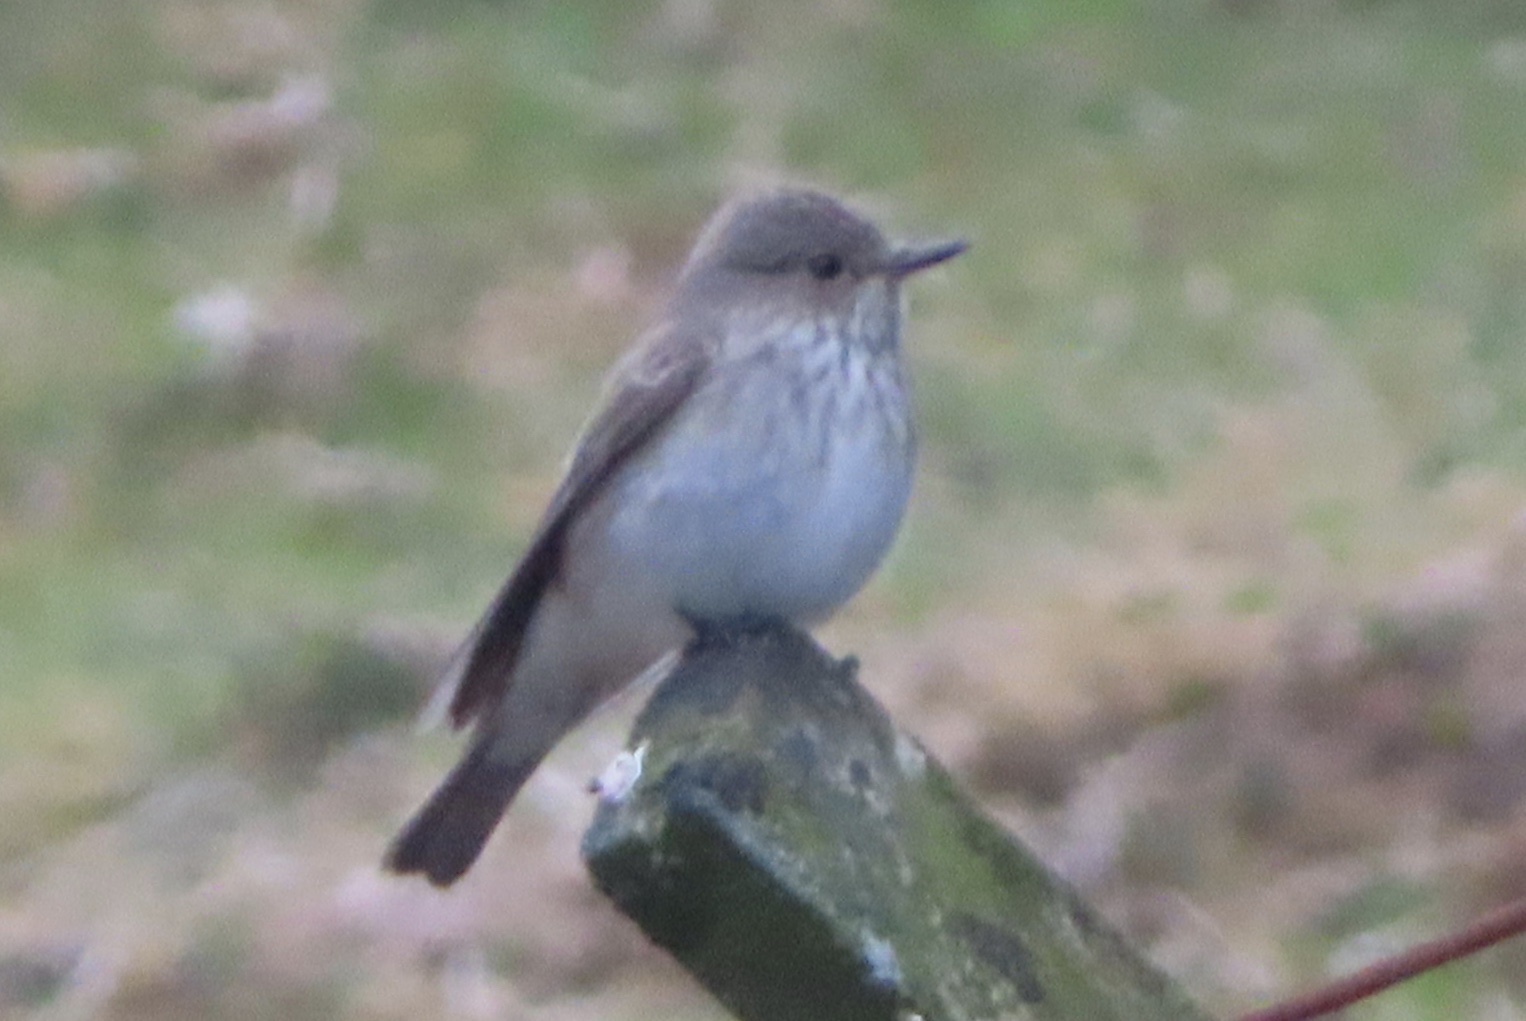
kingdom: Animalia
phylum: Chordata
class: Aves
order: Passeriformes
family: Muscicapidae
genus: Muscicapa
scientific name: Muscicapa striata
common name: Spotted flycatcher
